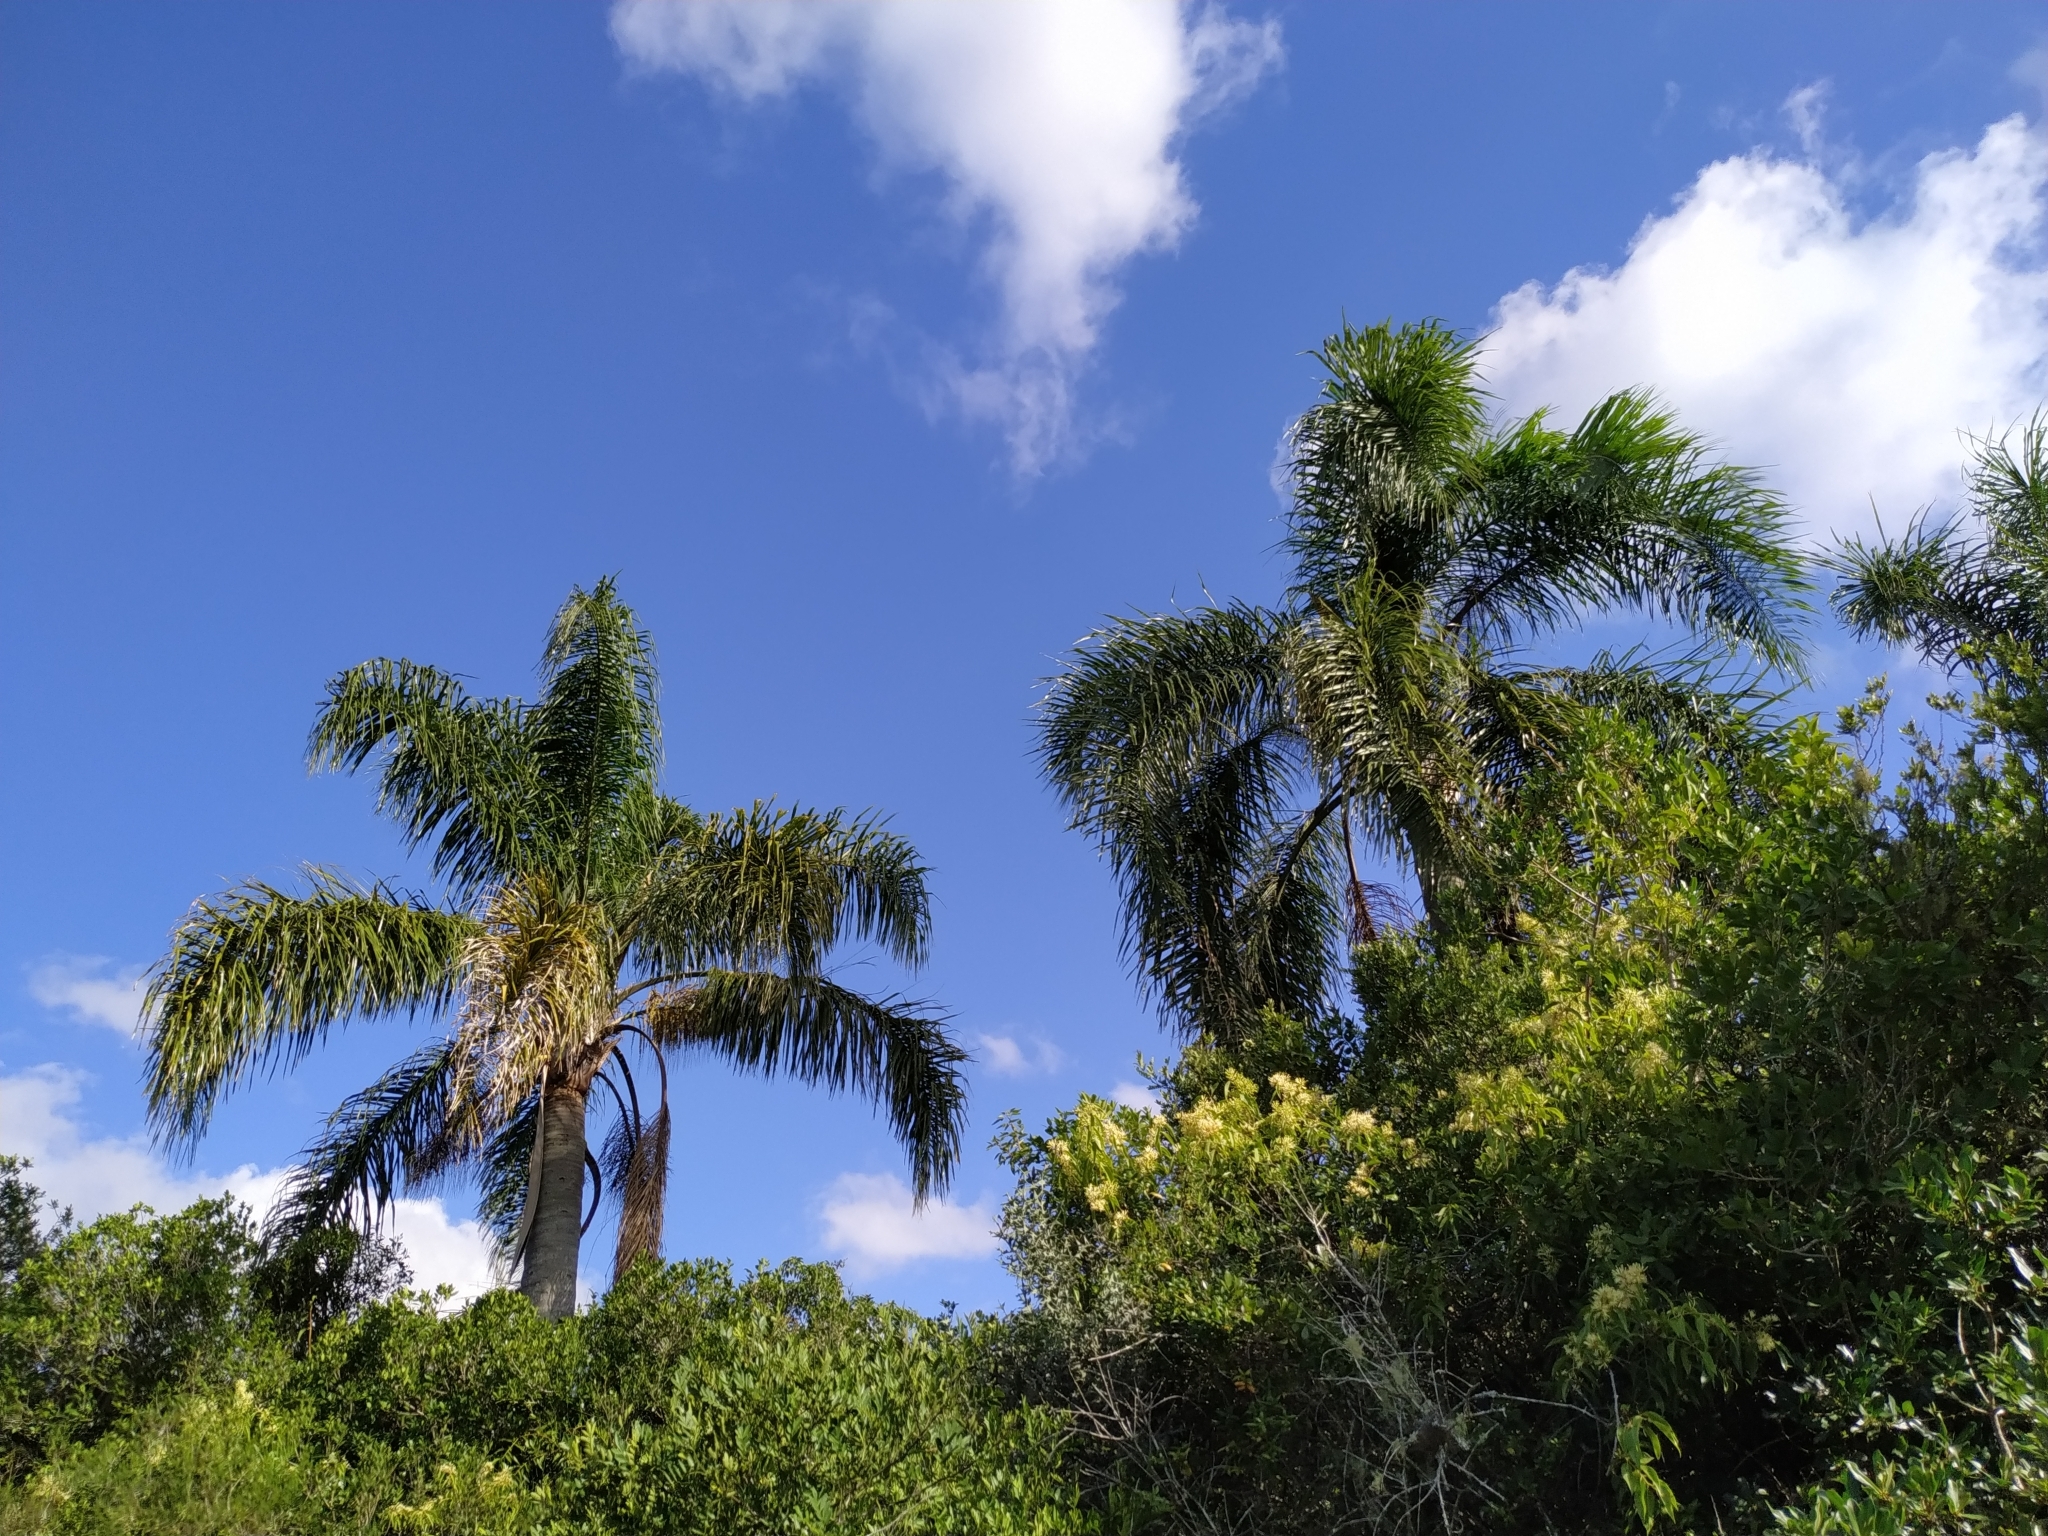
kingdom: Plantae
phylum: Tracheophyta
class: Liliopsida
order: Arecales
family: Arecaceae
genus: Syagrus
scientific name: Syagrus romanzoffiana
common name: Queen palm
